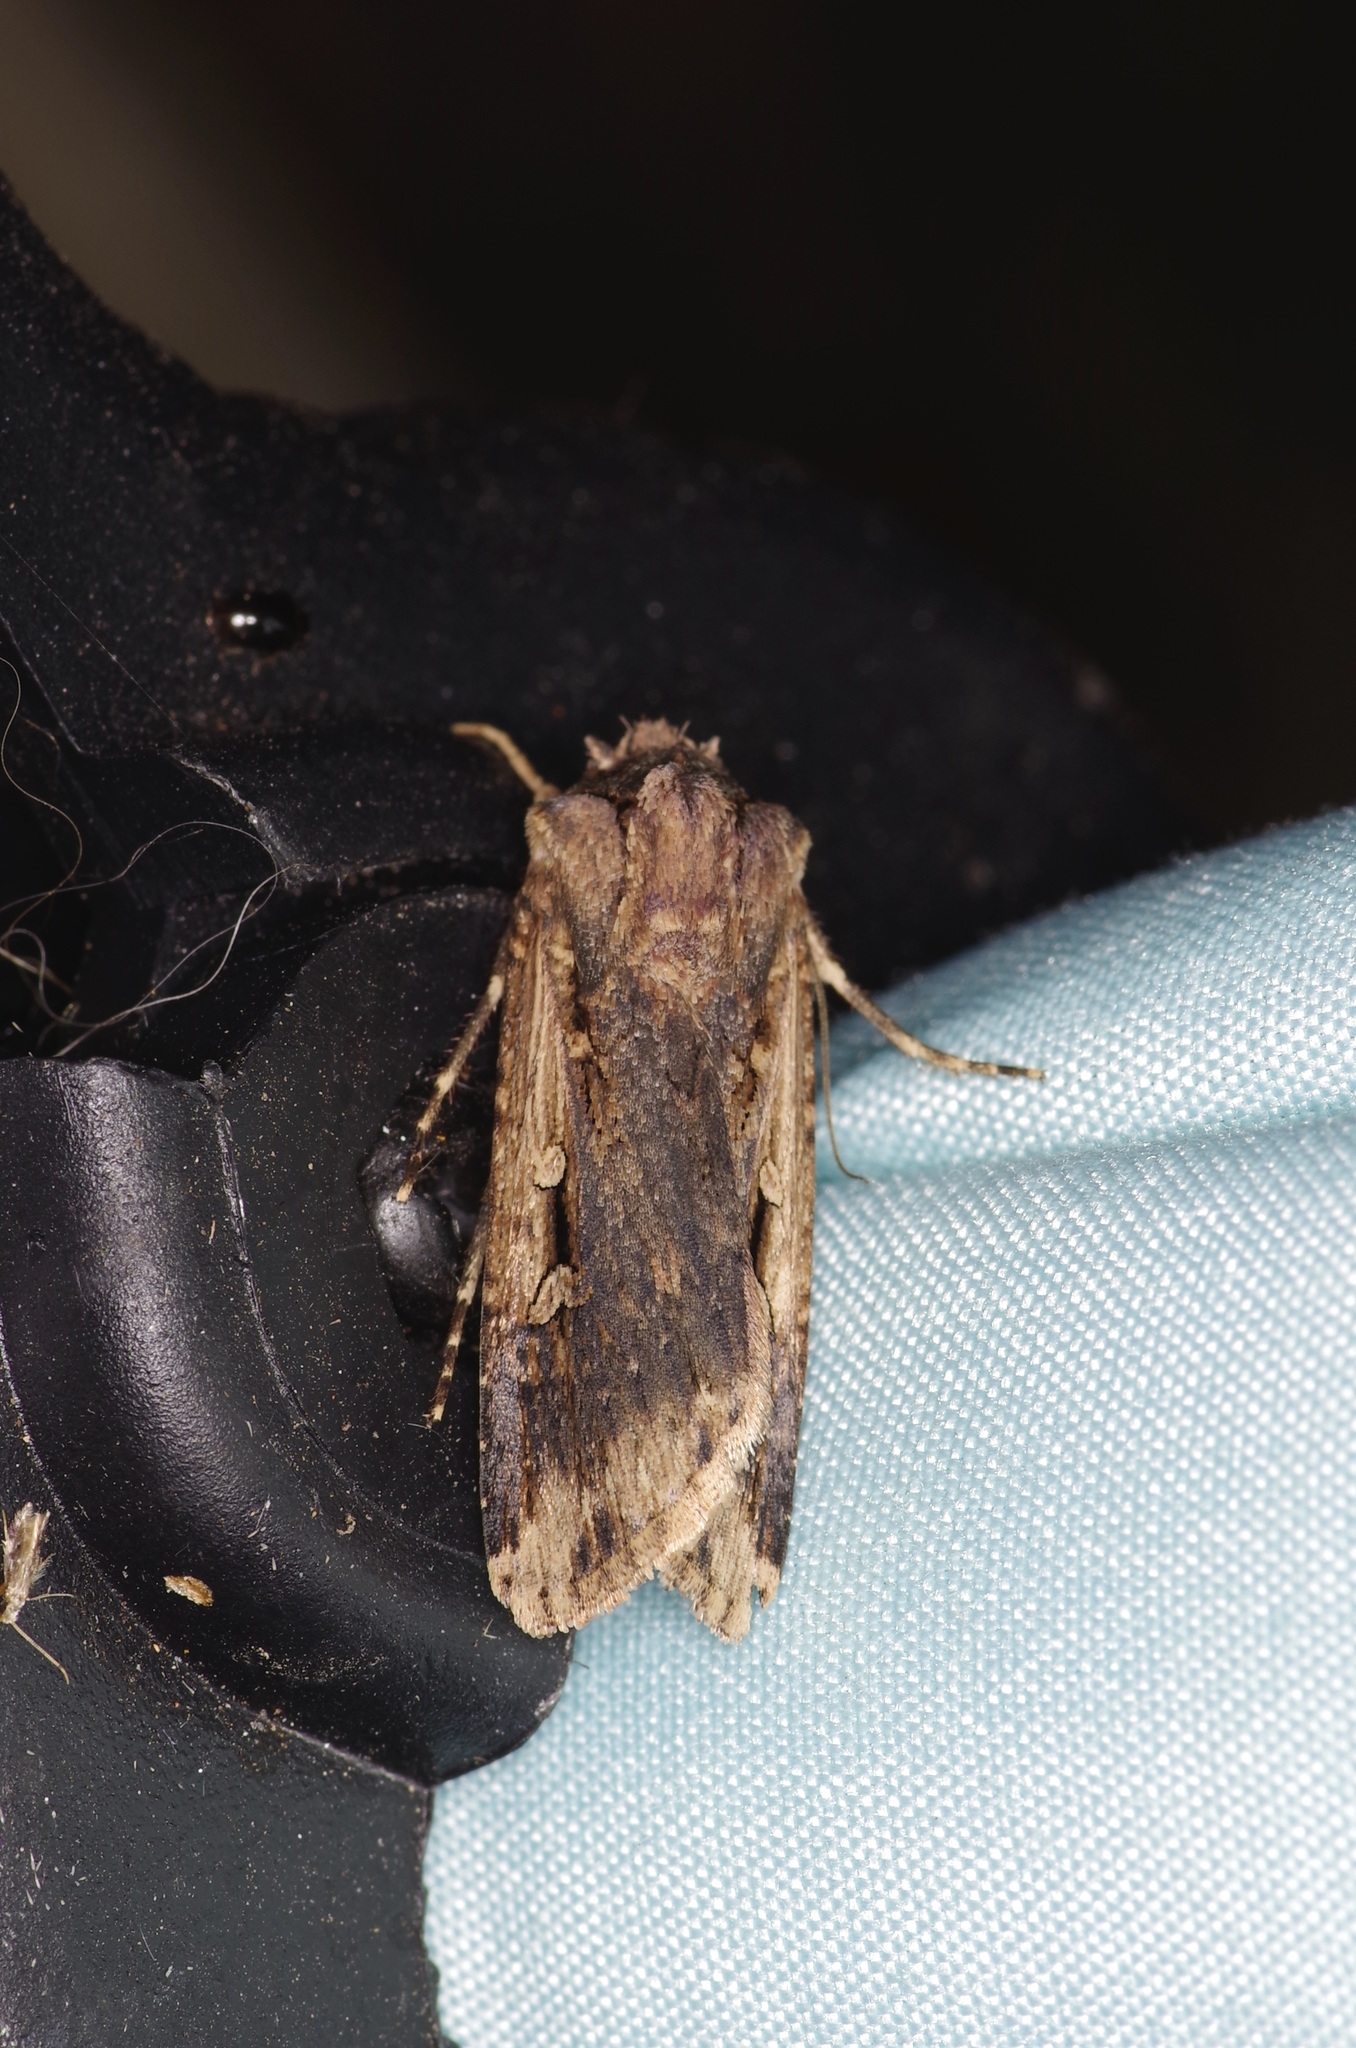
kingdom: Animalia
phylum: Arthropoda
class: Insecta
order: Lepidoptera
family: Noctuidae
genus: Feltia
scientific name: Feltia subterranea
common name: Granulate cutworm
